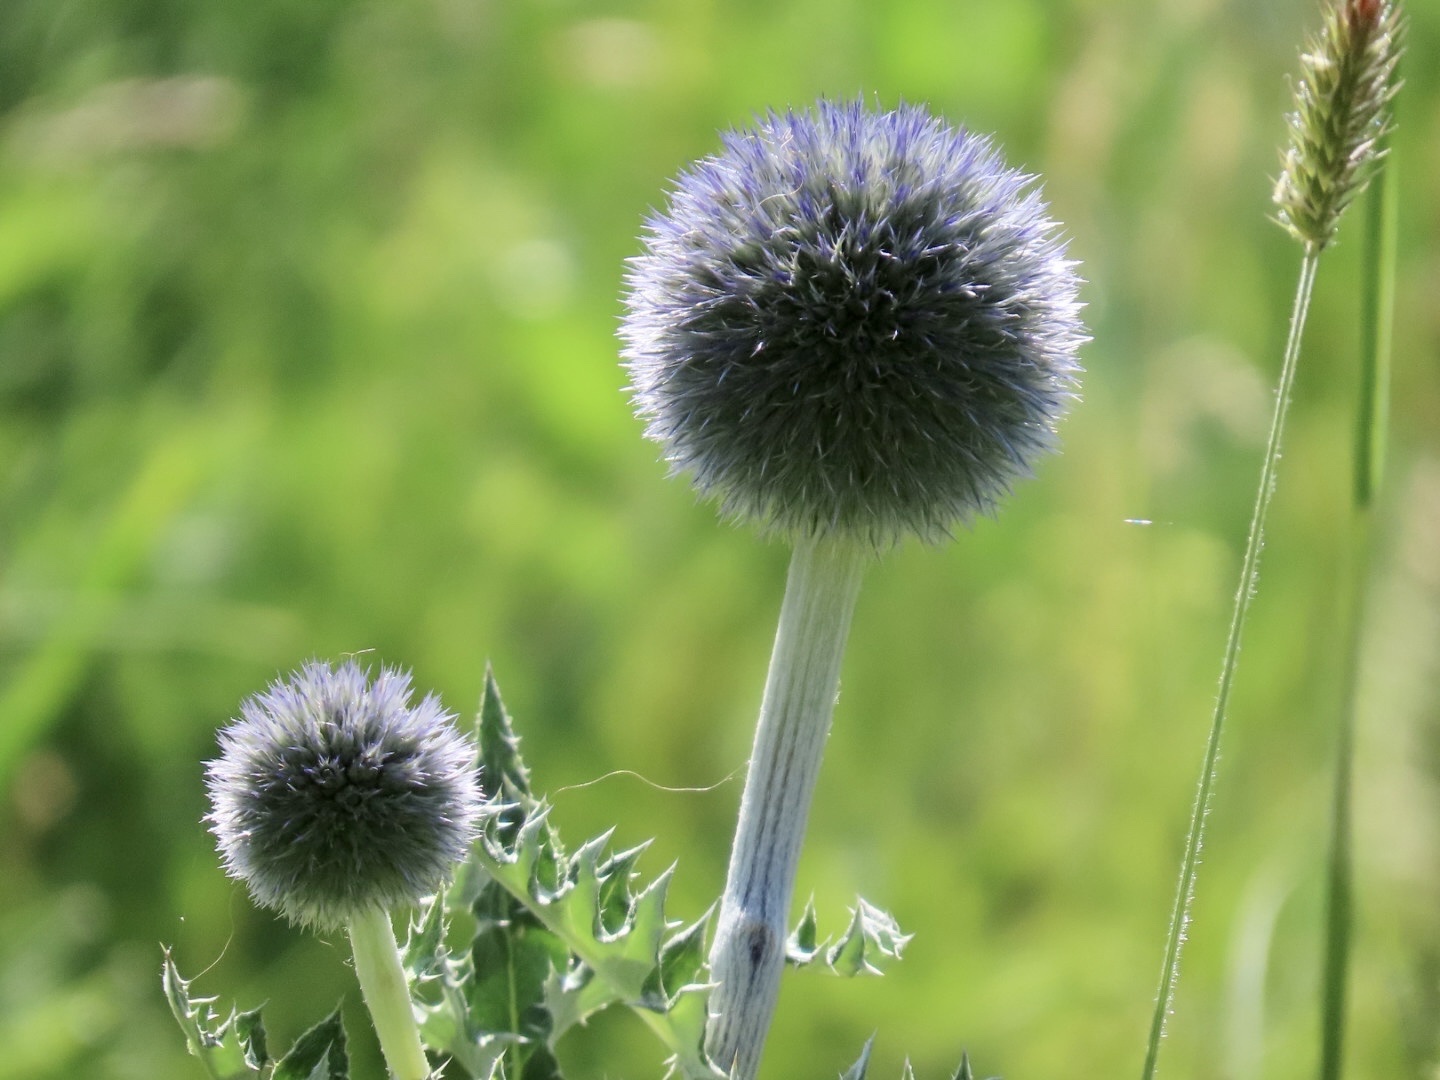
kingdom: Plantae
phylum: Tracheophyta
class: Magnoliopsida
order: Asterales
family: Asteraceae
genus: Echinops
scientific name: Echinops davuricus
